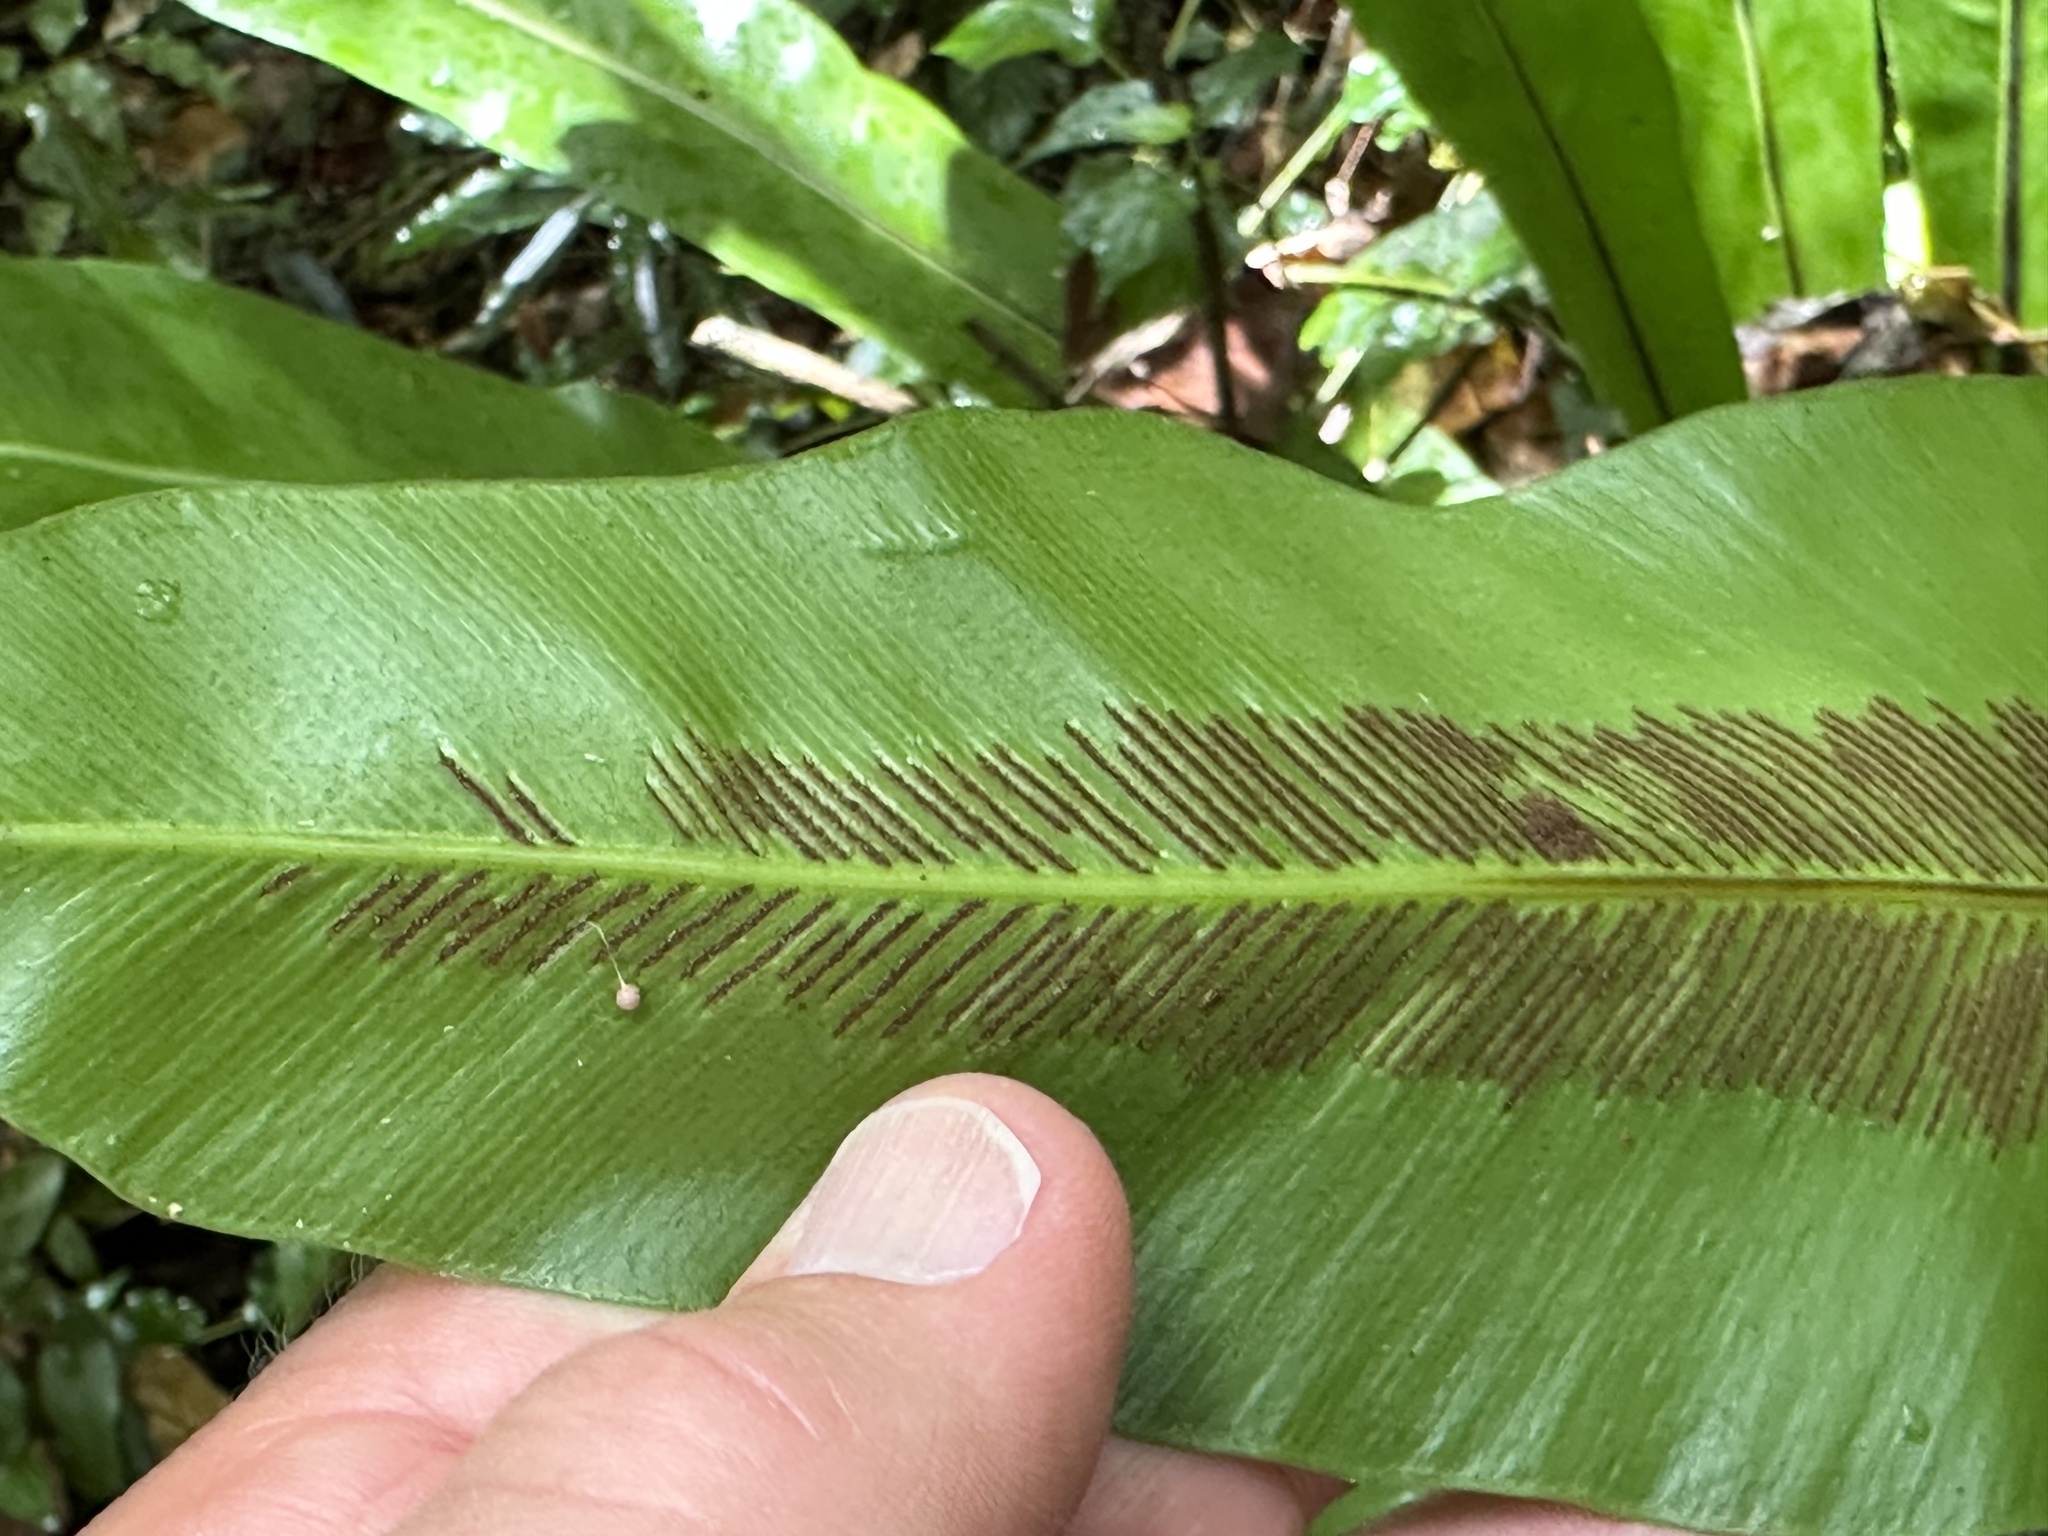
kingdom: Plantae
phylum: Tracheophyta
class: Polypodiopsida
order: Polypodiales
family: Aspleniaceae
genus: Asplenium
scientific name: Asplenium nidus
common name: Bird's-nest fern
